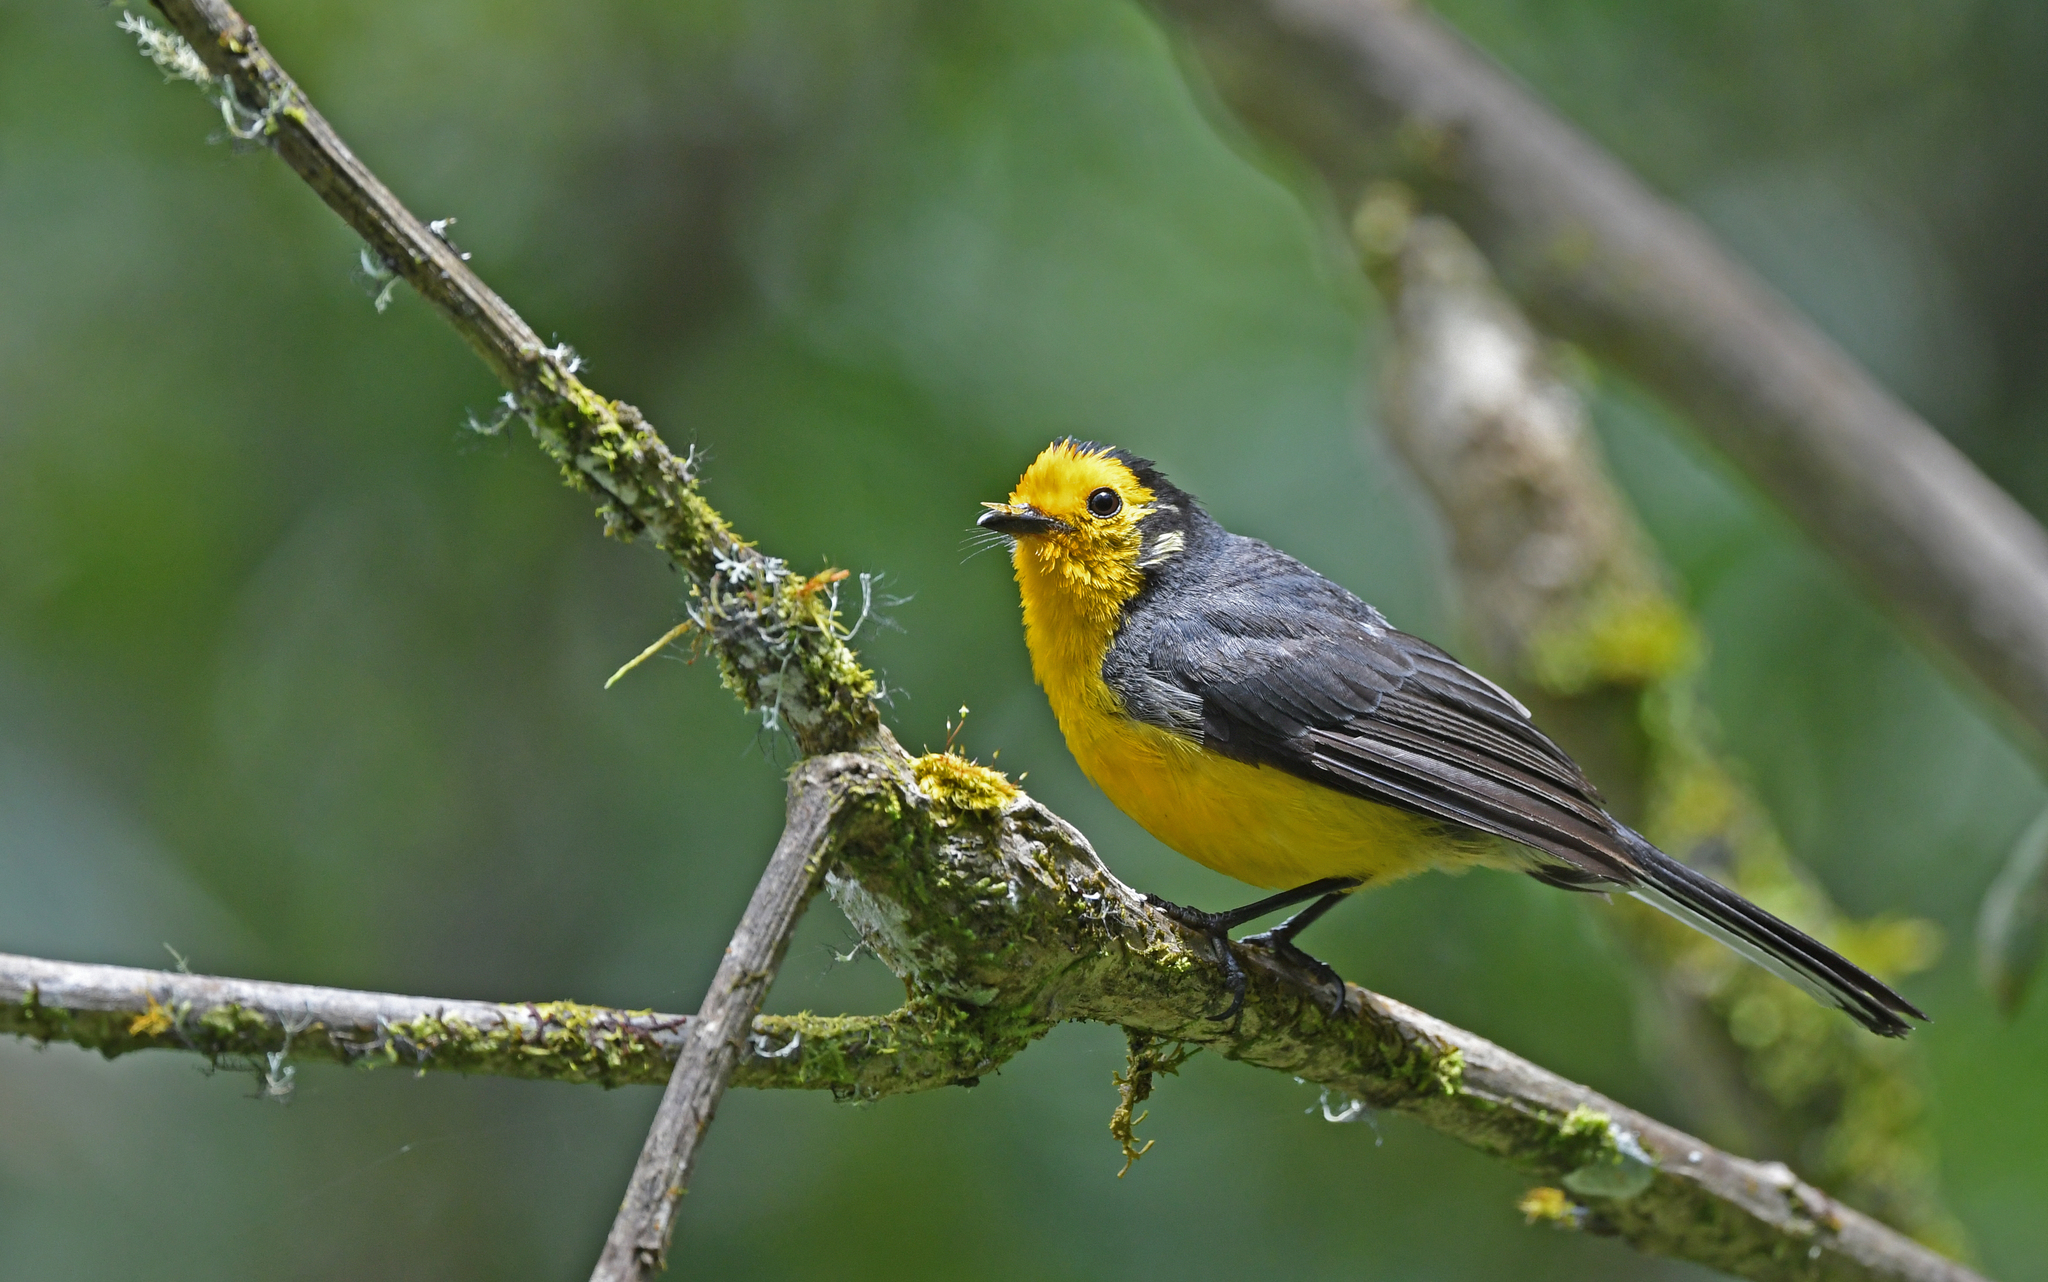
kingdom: Animalia
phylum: Chordata
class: Aves
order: Passeriformes
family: Parulidae
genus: Myioborus
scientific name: Myioborus ornatus
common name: Golden-fronted whitestart
